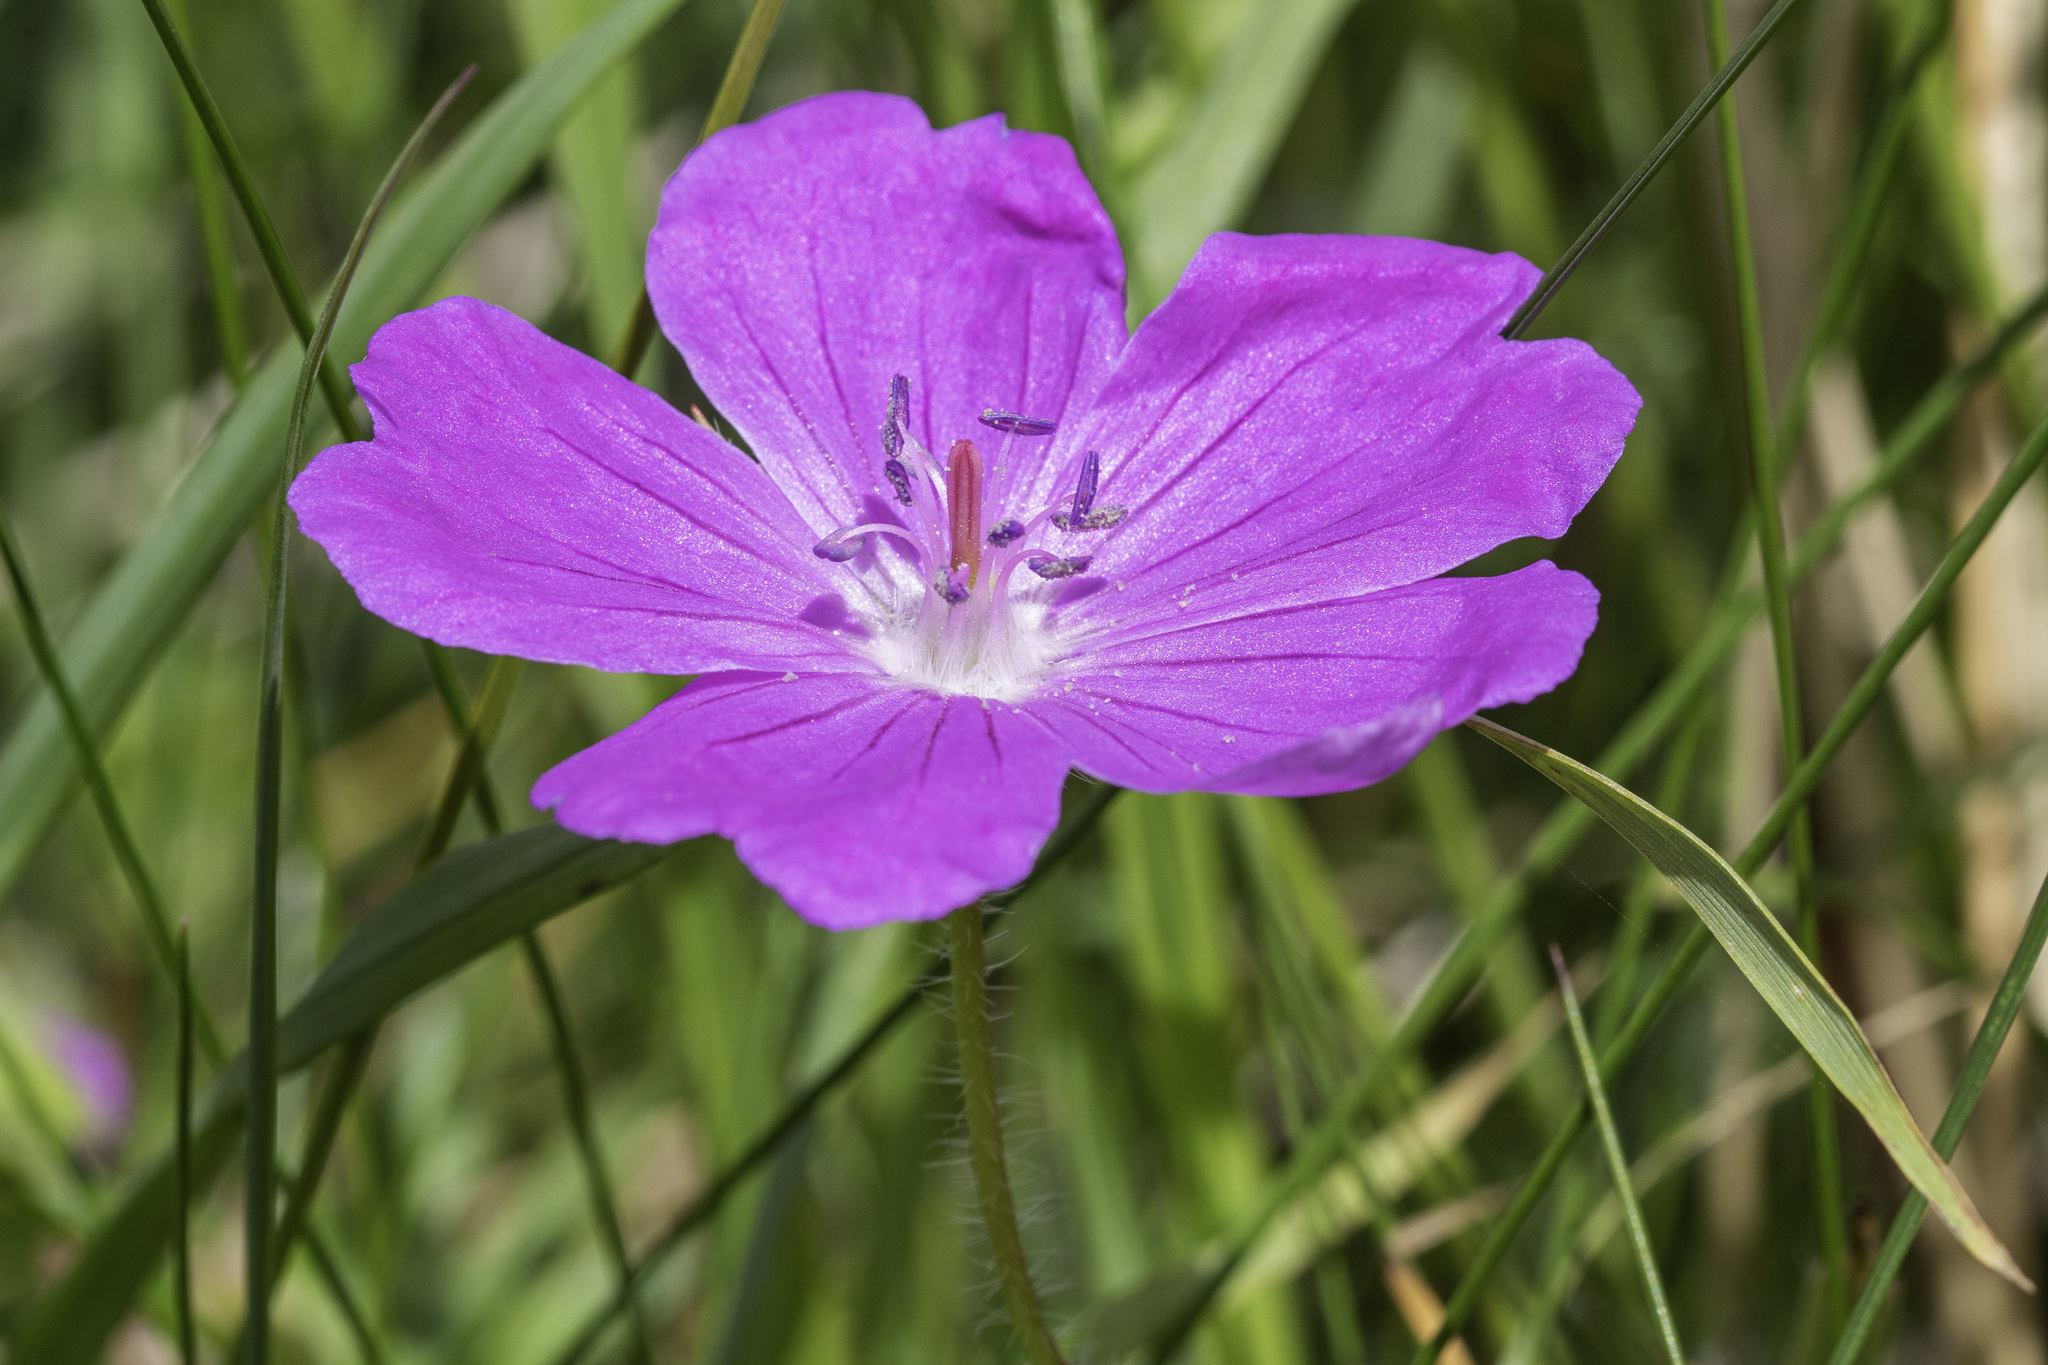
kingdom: Plantae
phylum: Tracheophyta
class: Magnoliopsida
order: Geraniales
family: Geraniaceae
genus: Geranium
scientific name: Geranium sanguineum
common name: Bloody crane's-bill
